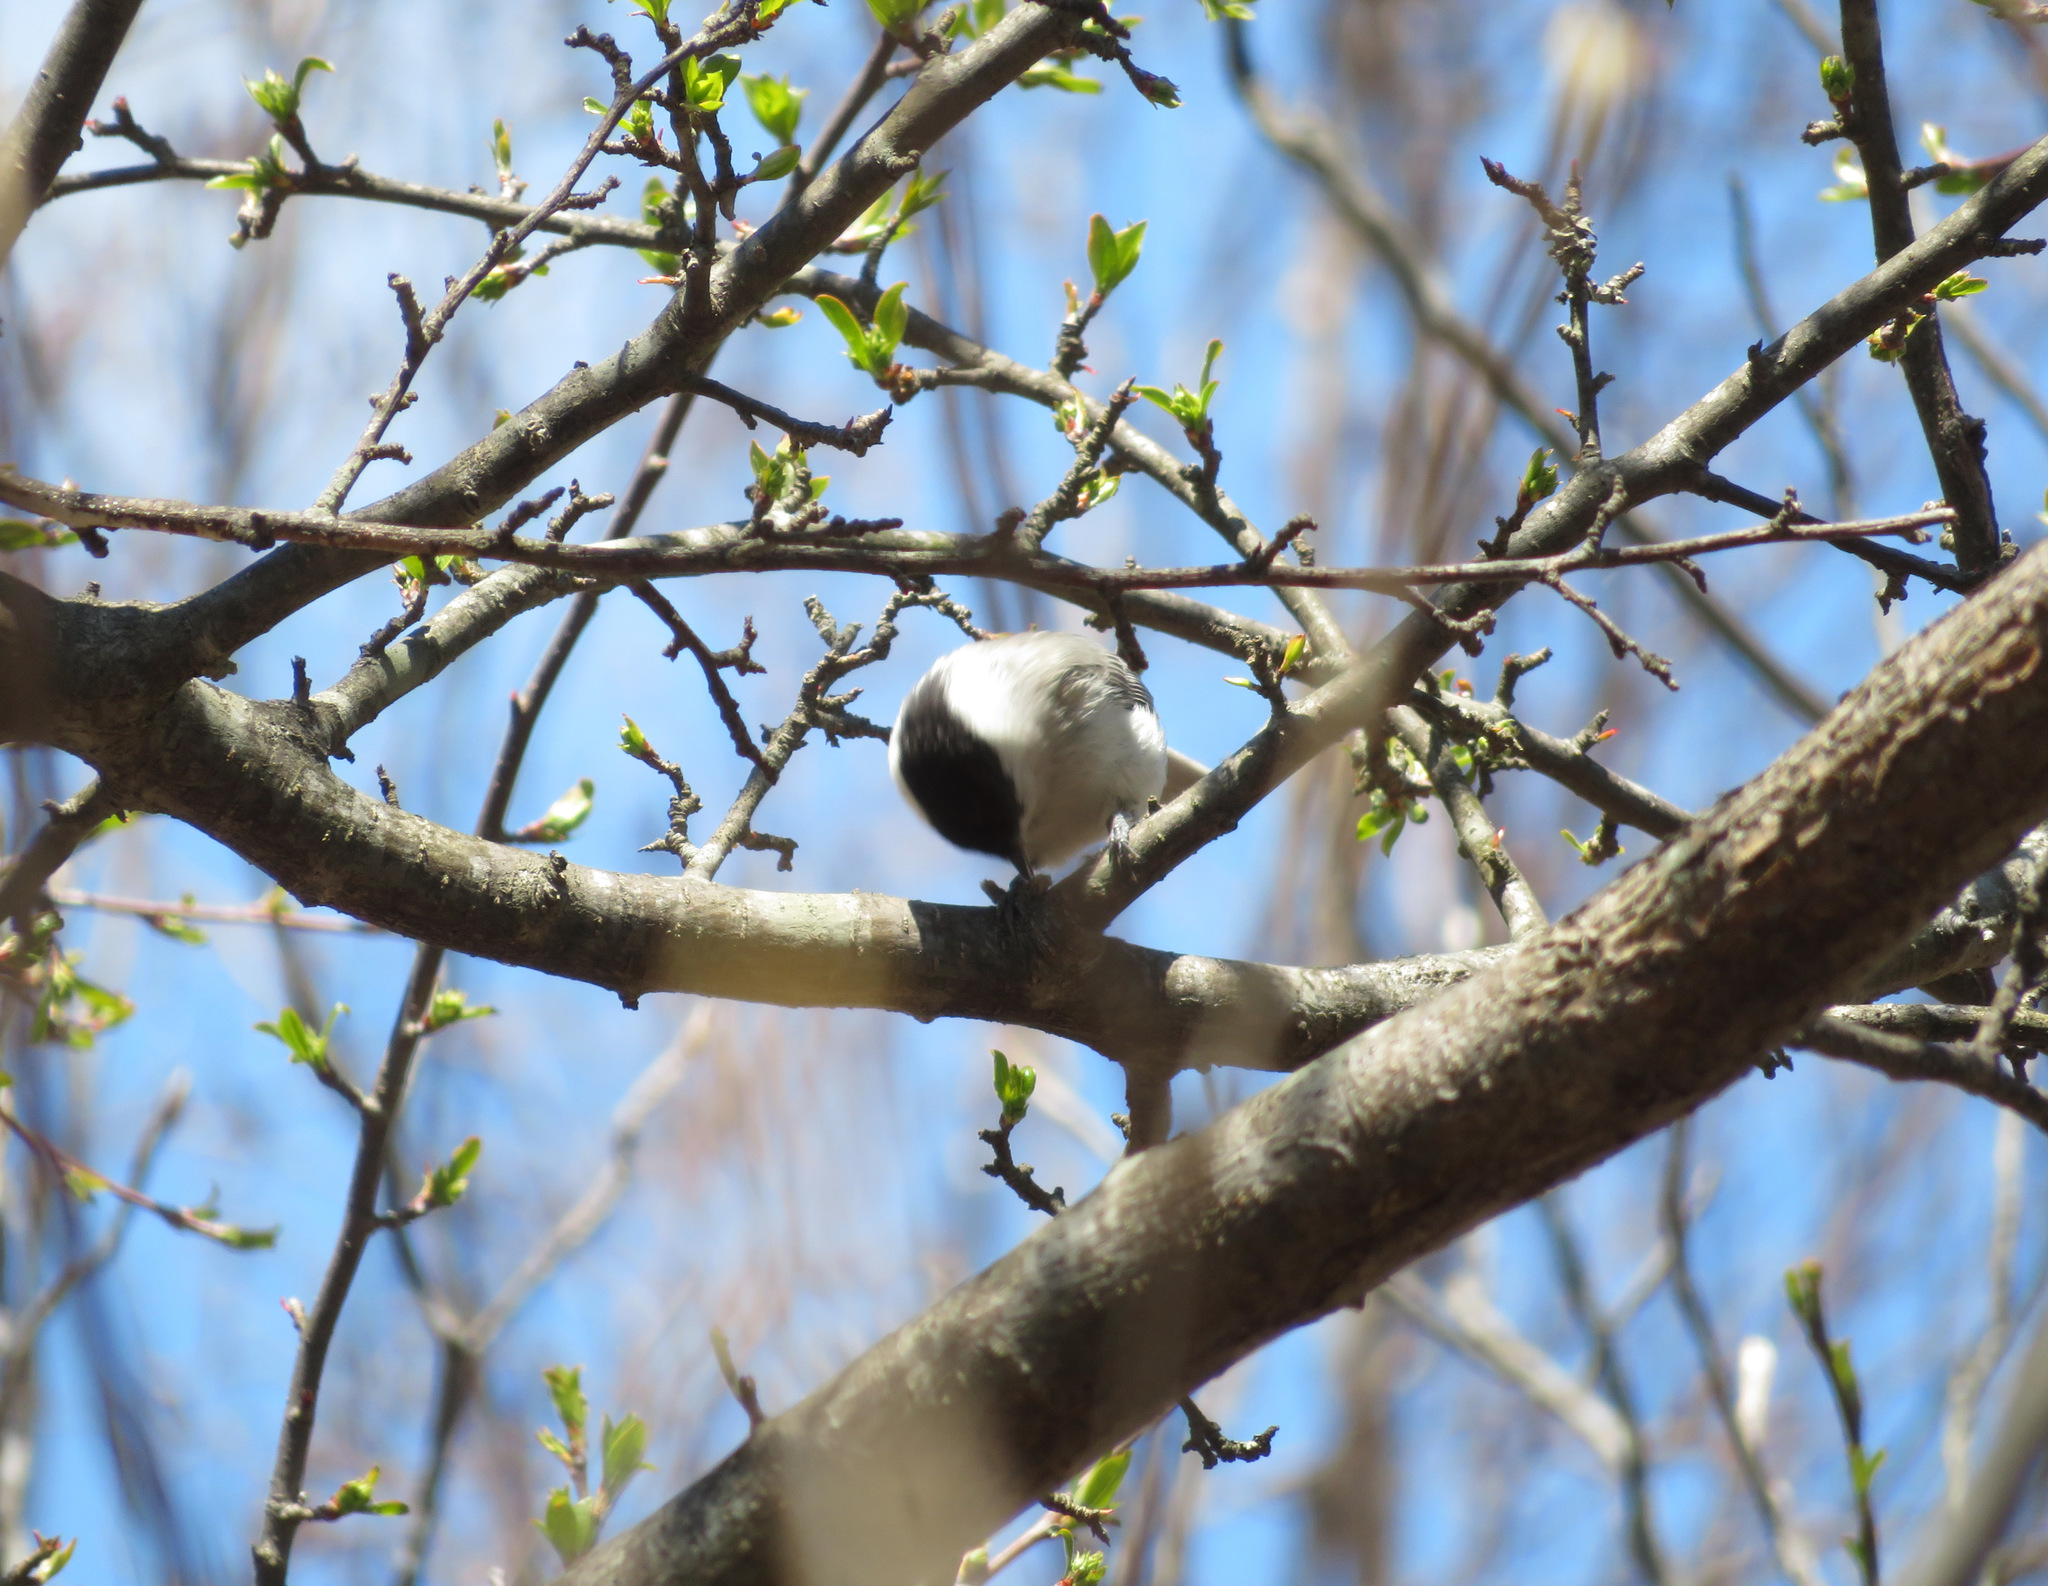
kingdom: Animalia
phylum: Chordata
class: Aves
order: Passeriformes
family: Paridae
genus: Poecile
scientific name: Poecile montanus
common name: Willow tit
